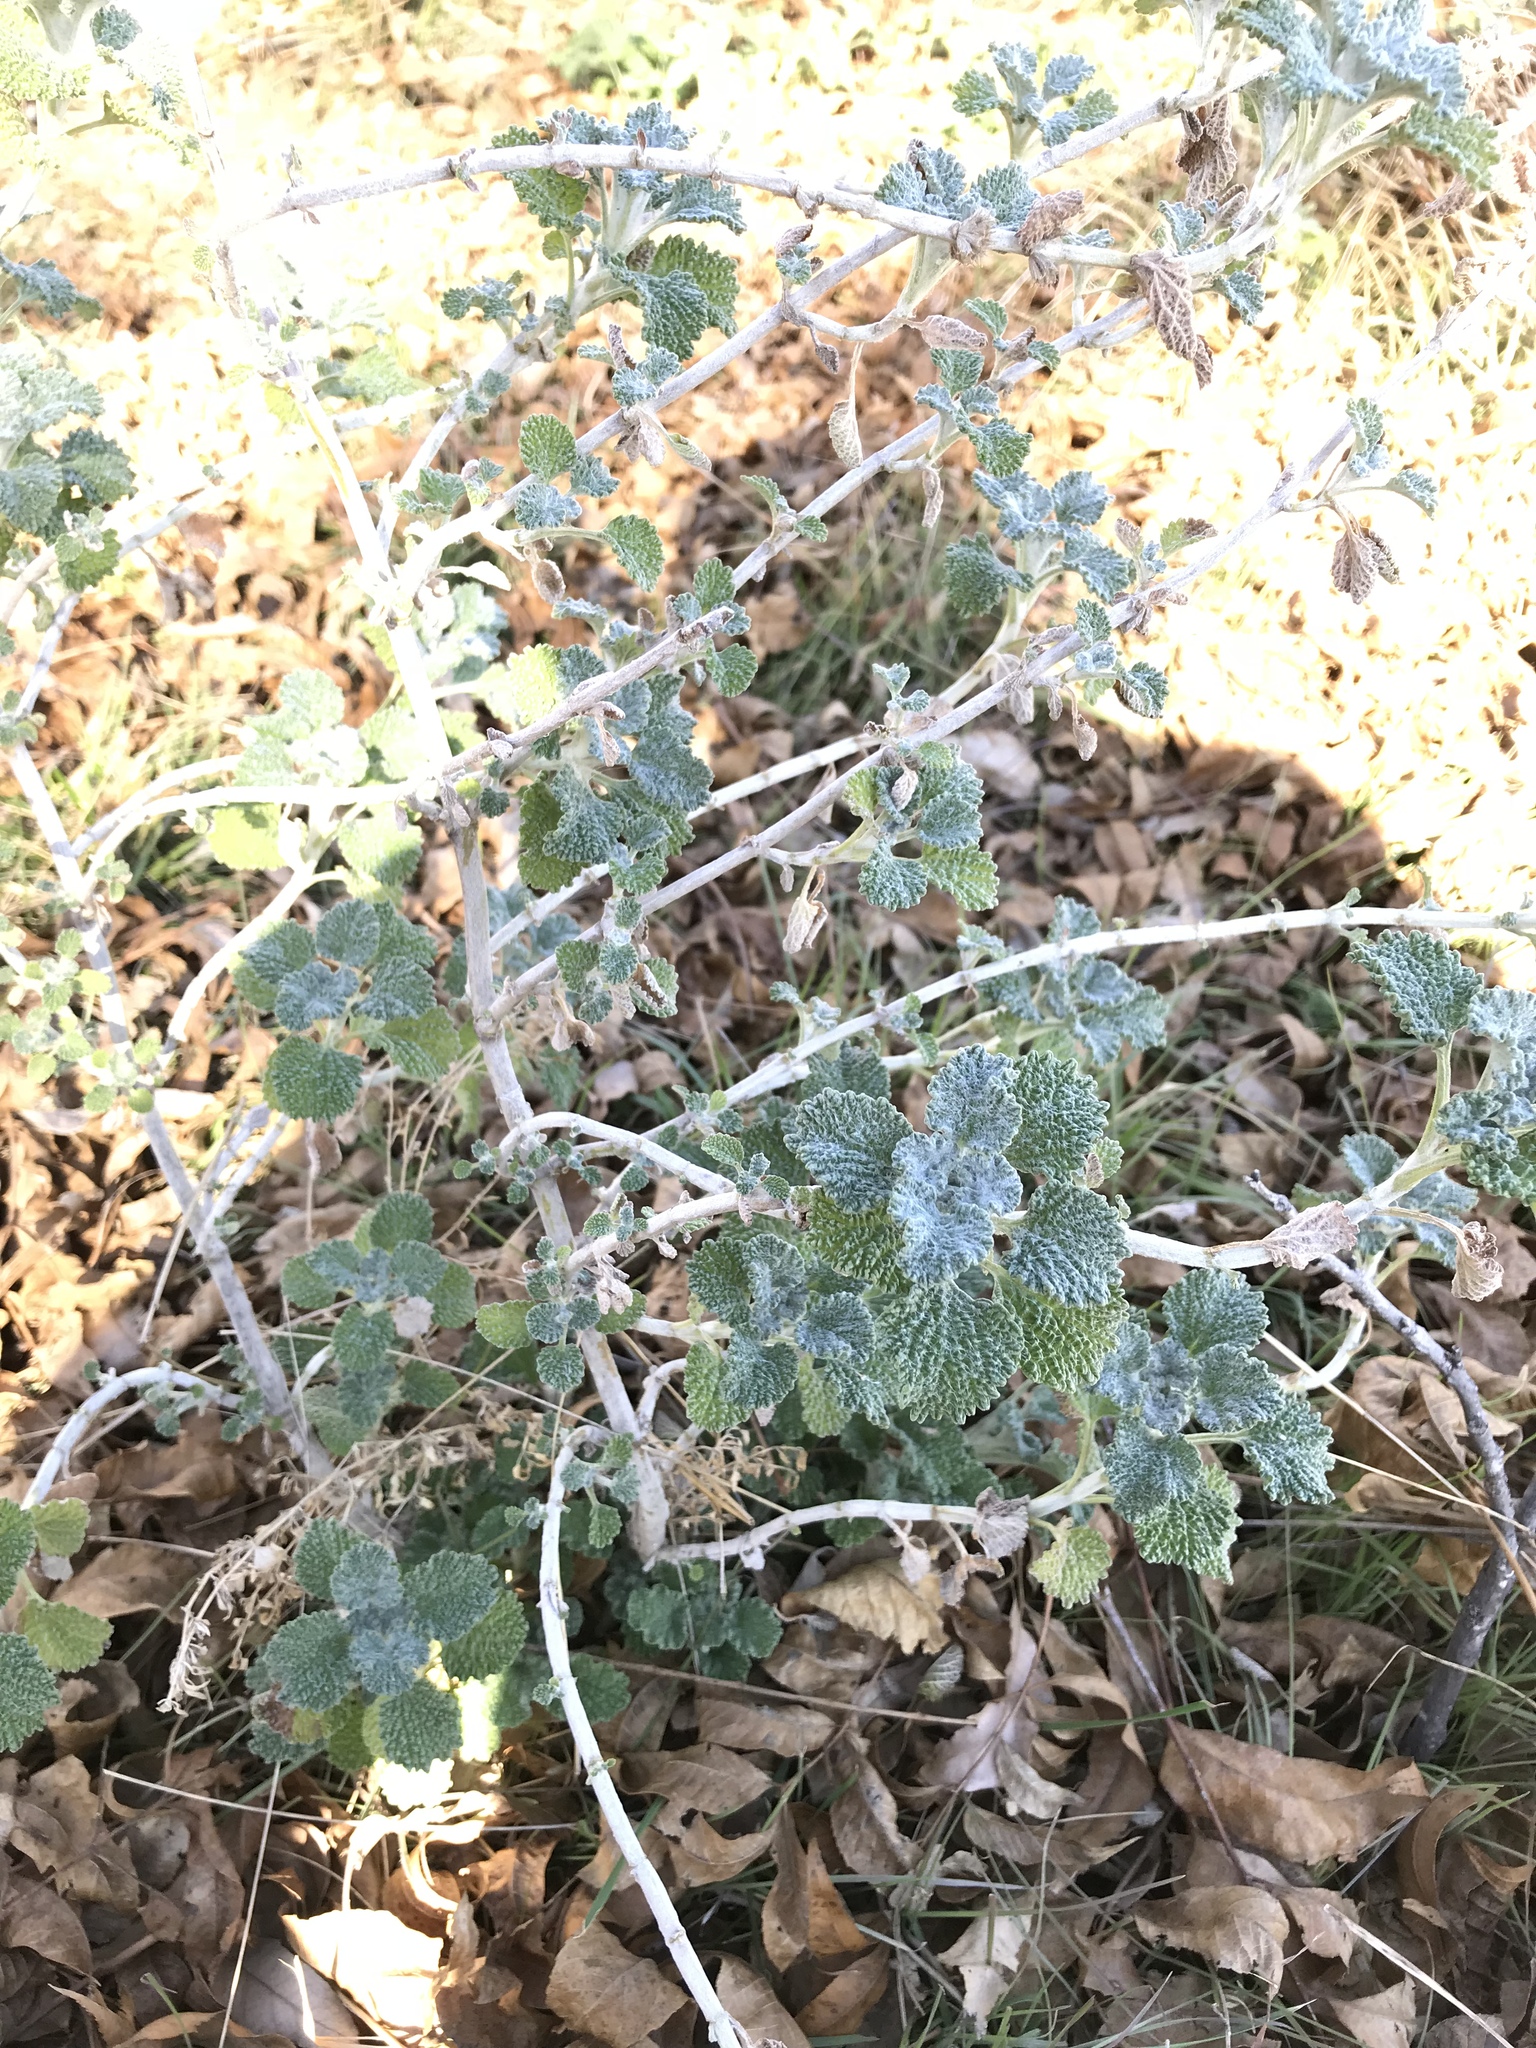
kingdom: Plantae
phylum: Tracheophyta
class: Magnoliopsida
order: Lamiales
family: Lamiaceae
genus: Marrubium
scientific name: Marrubium vulgare
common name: Horehound
